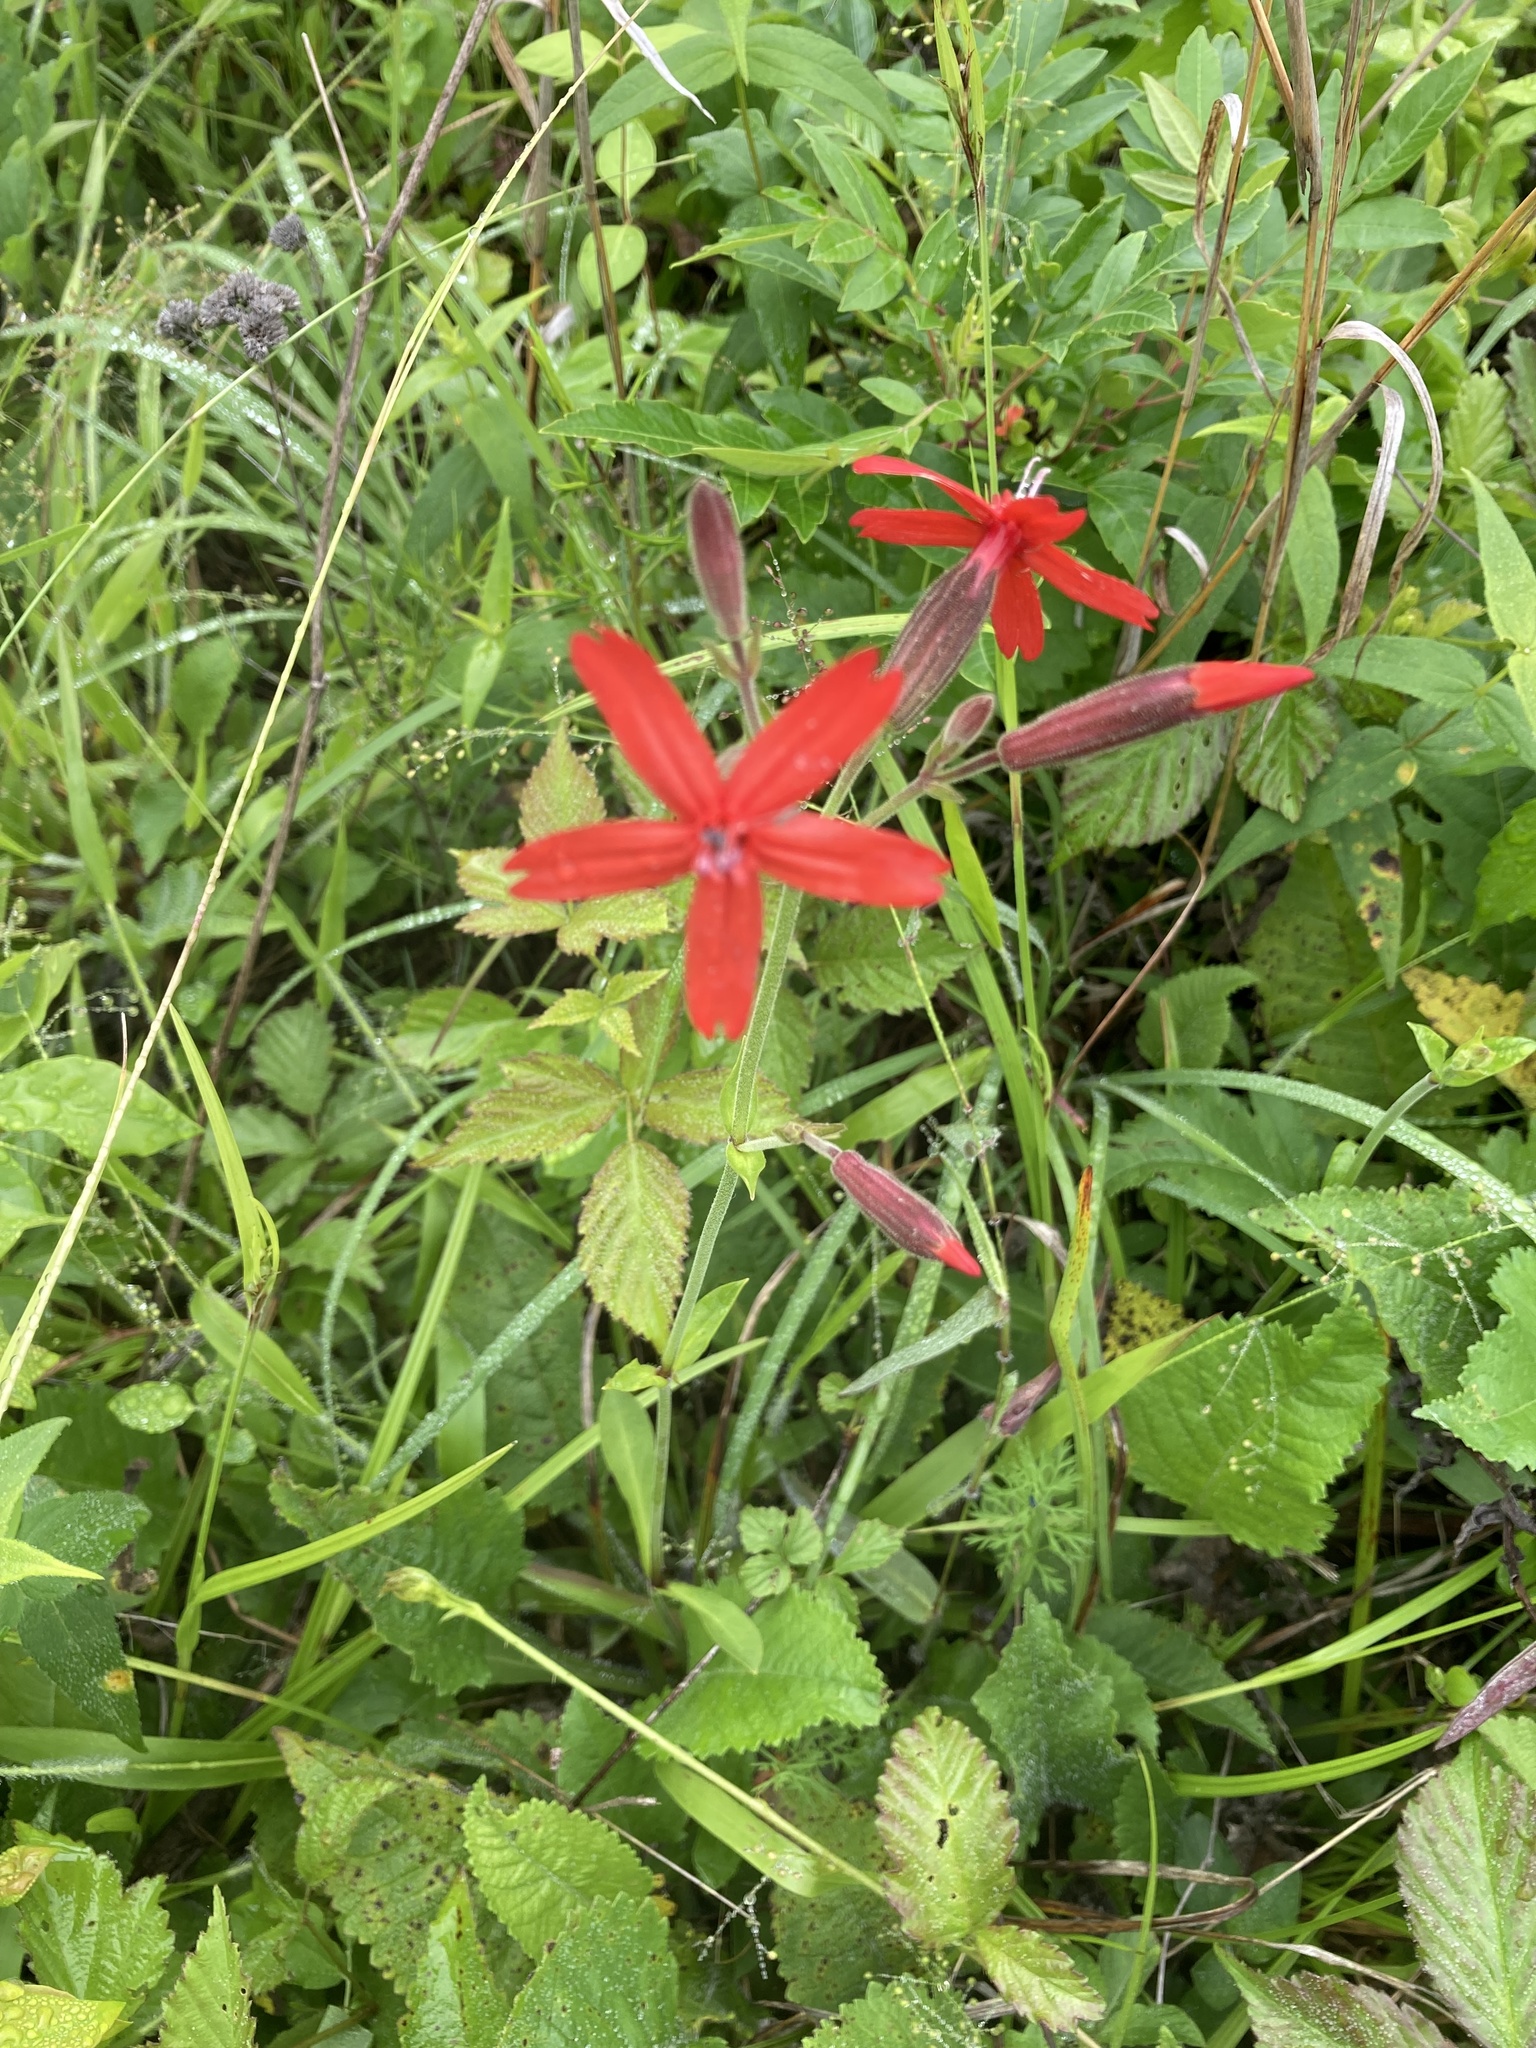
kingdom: Plantae
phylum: Tracheophyta
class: Magnoliopsida
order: Caryophyllales
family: Caryophyllaceae
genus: Silene
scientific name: Silene virginica
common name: Fire-pink
